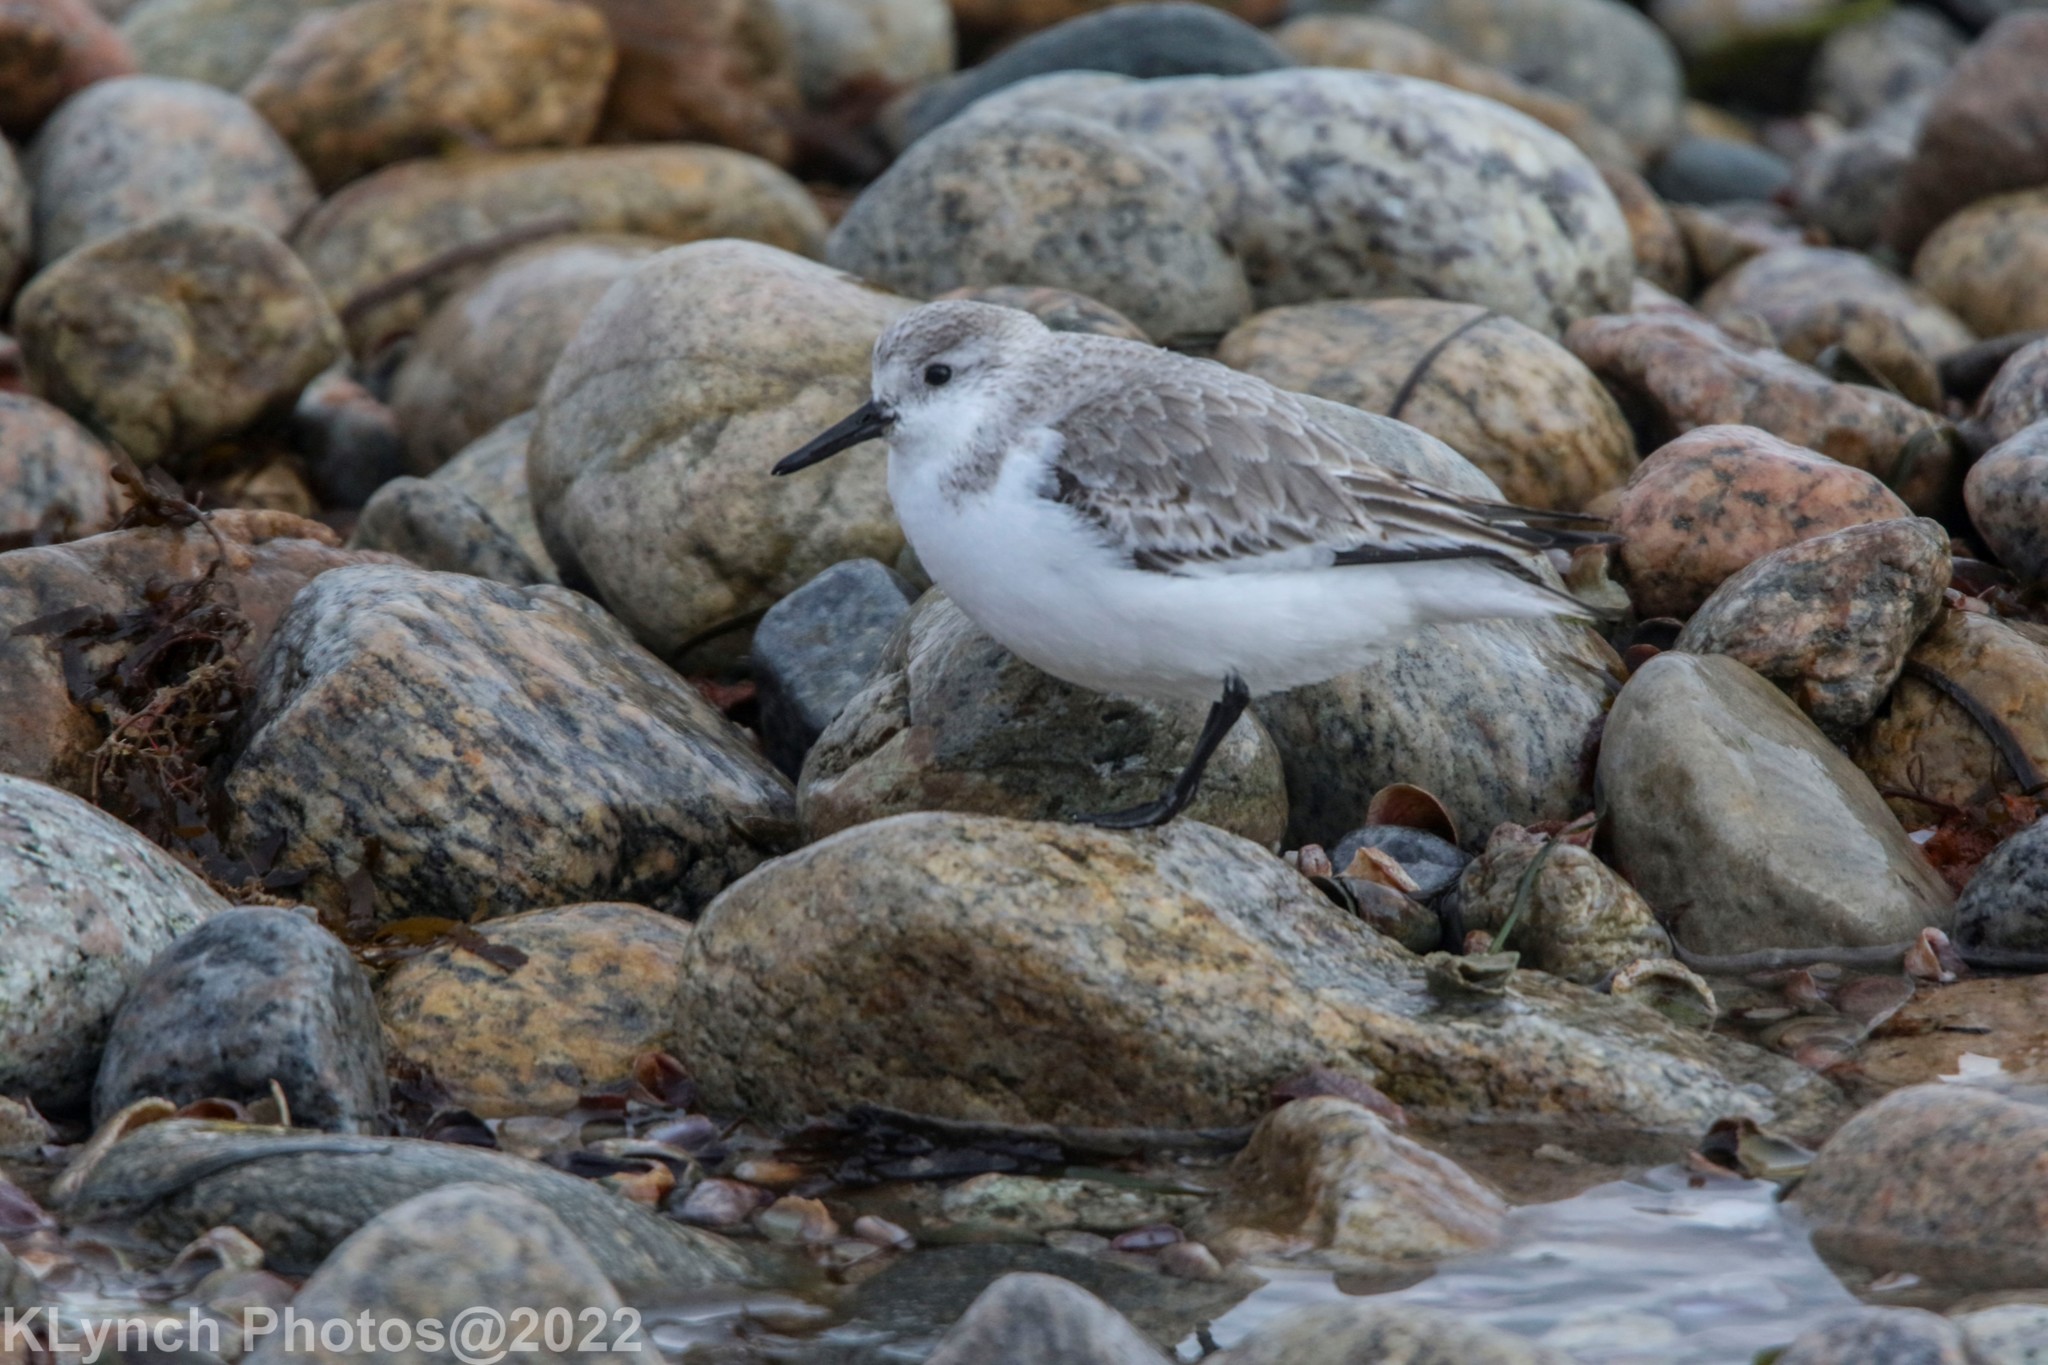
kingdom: Animalia
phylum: Chordata
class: Aves
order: Charadriiformes
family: Scolopacidae
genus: Calidris
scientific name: Calidris alba
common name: Sanderling
